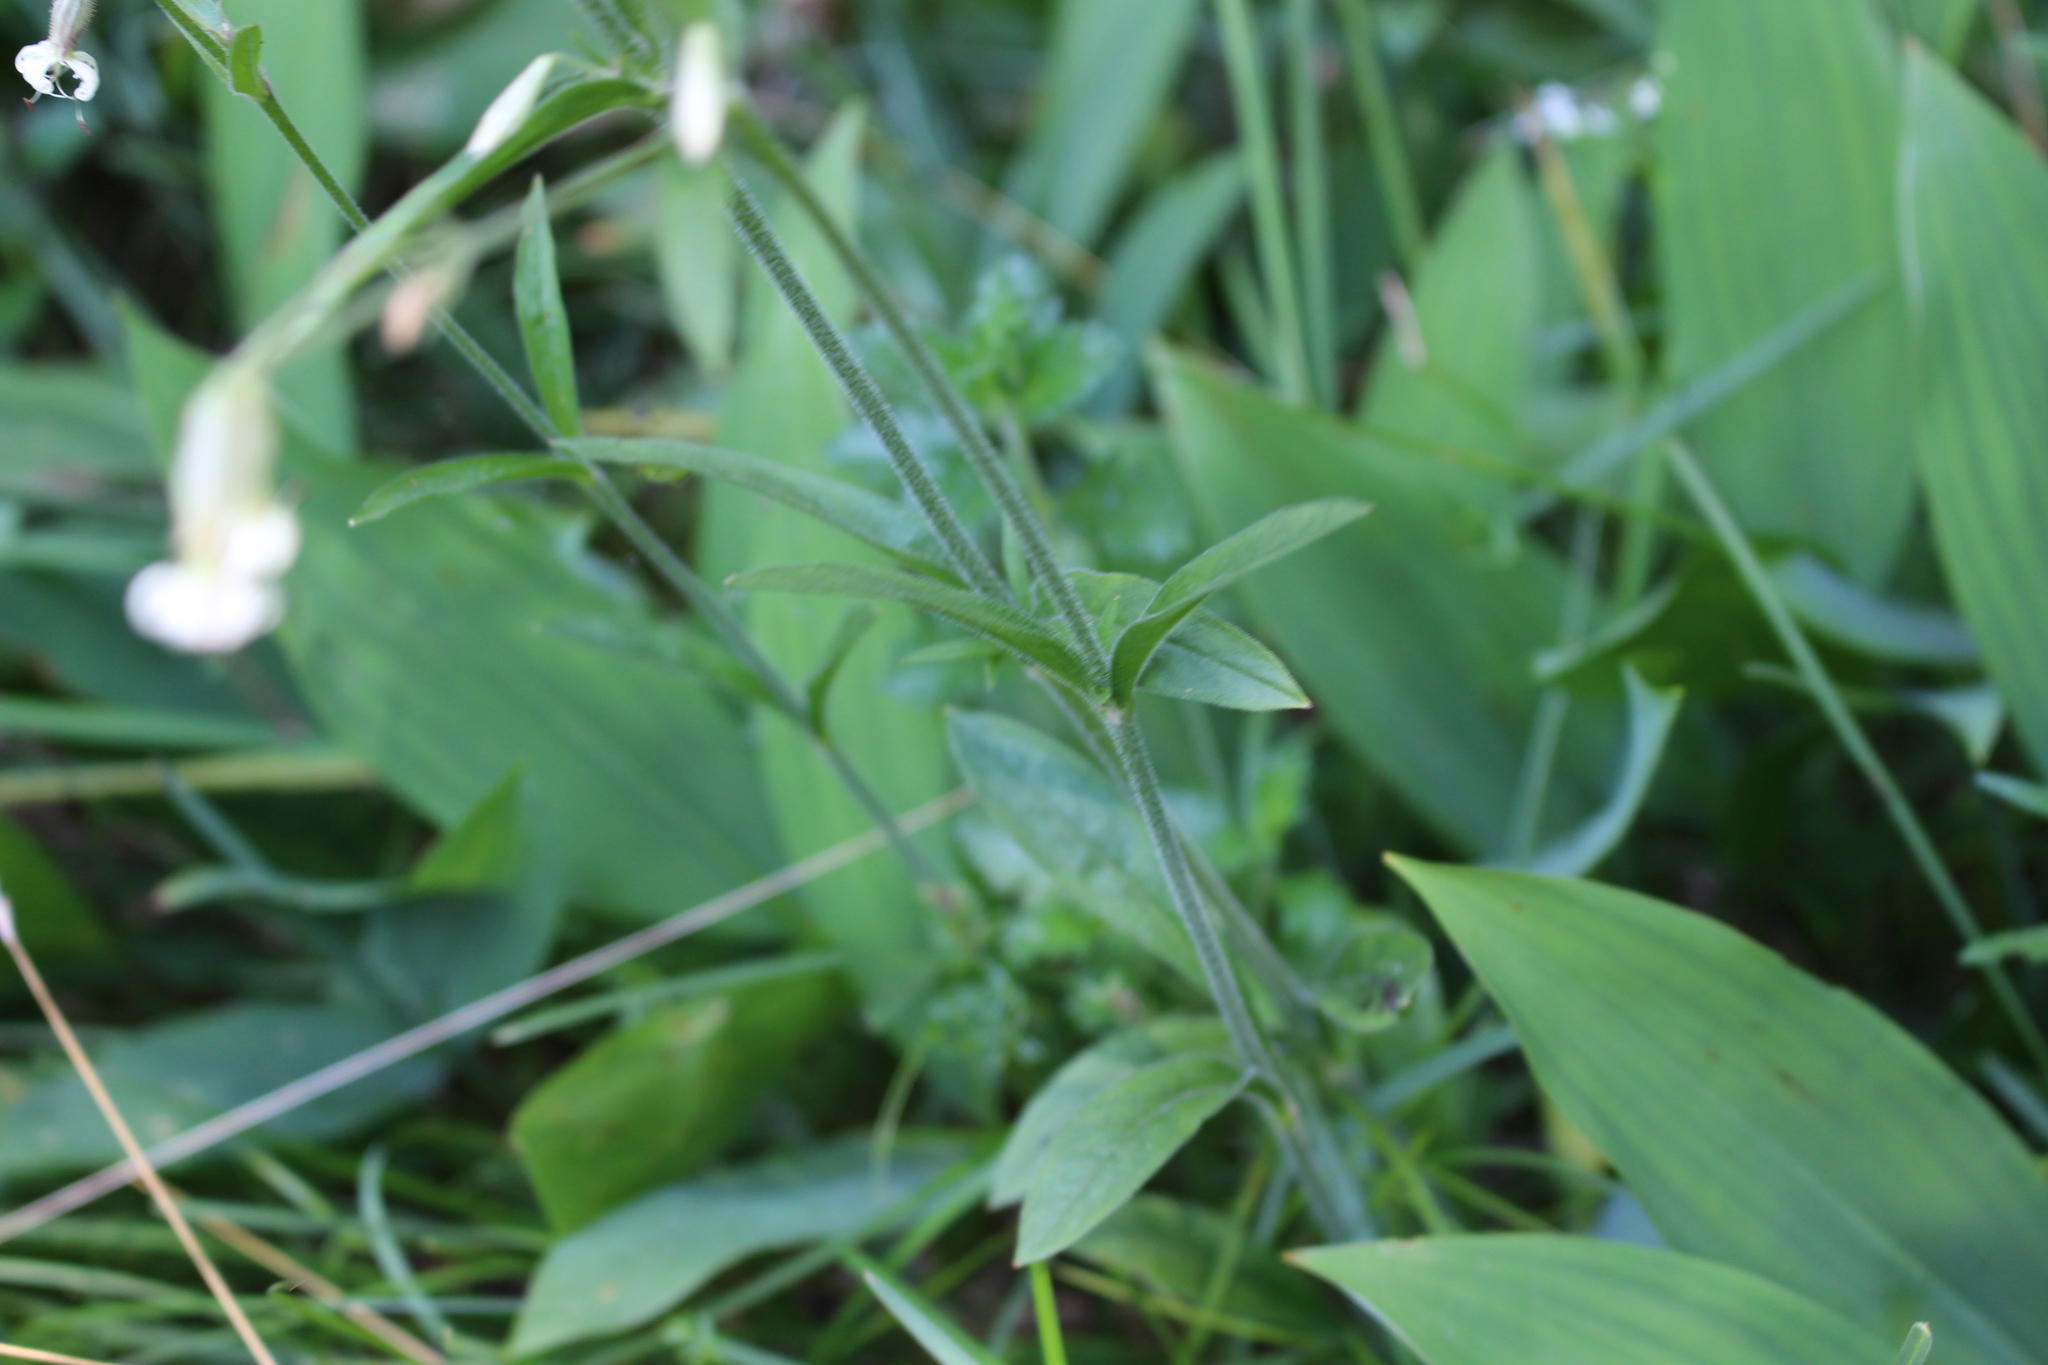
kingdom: Plantae
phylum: Tracheophyta
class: Magnoliopsida
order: Caryophyllales
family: Caryophyllaceae
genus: Silene
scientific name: Silene nutans
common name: Nottingham catchfly
